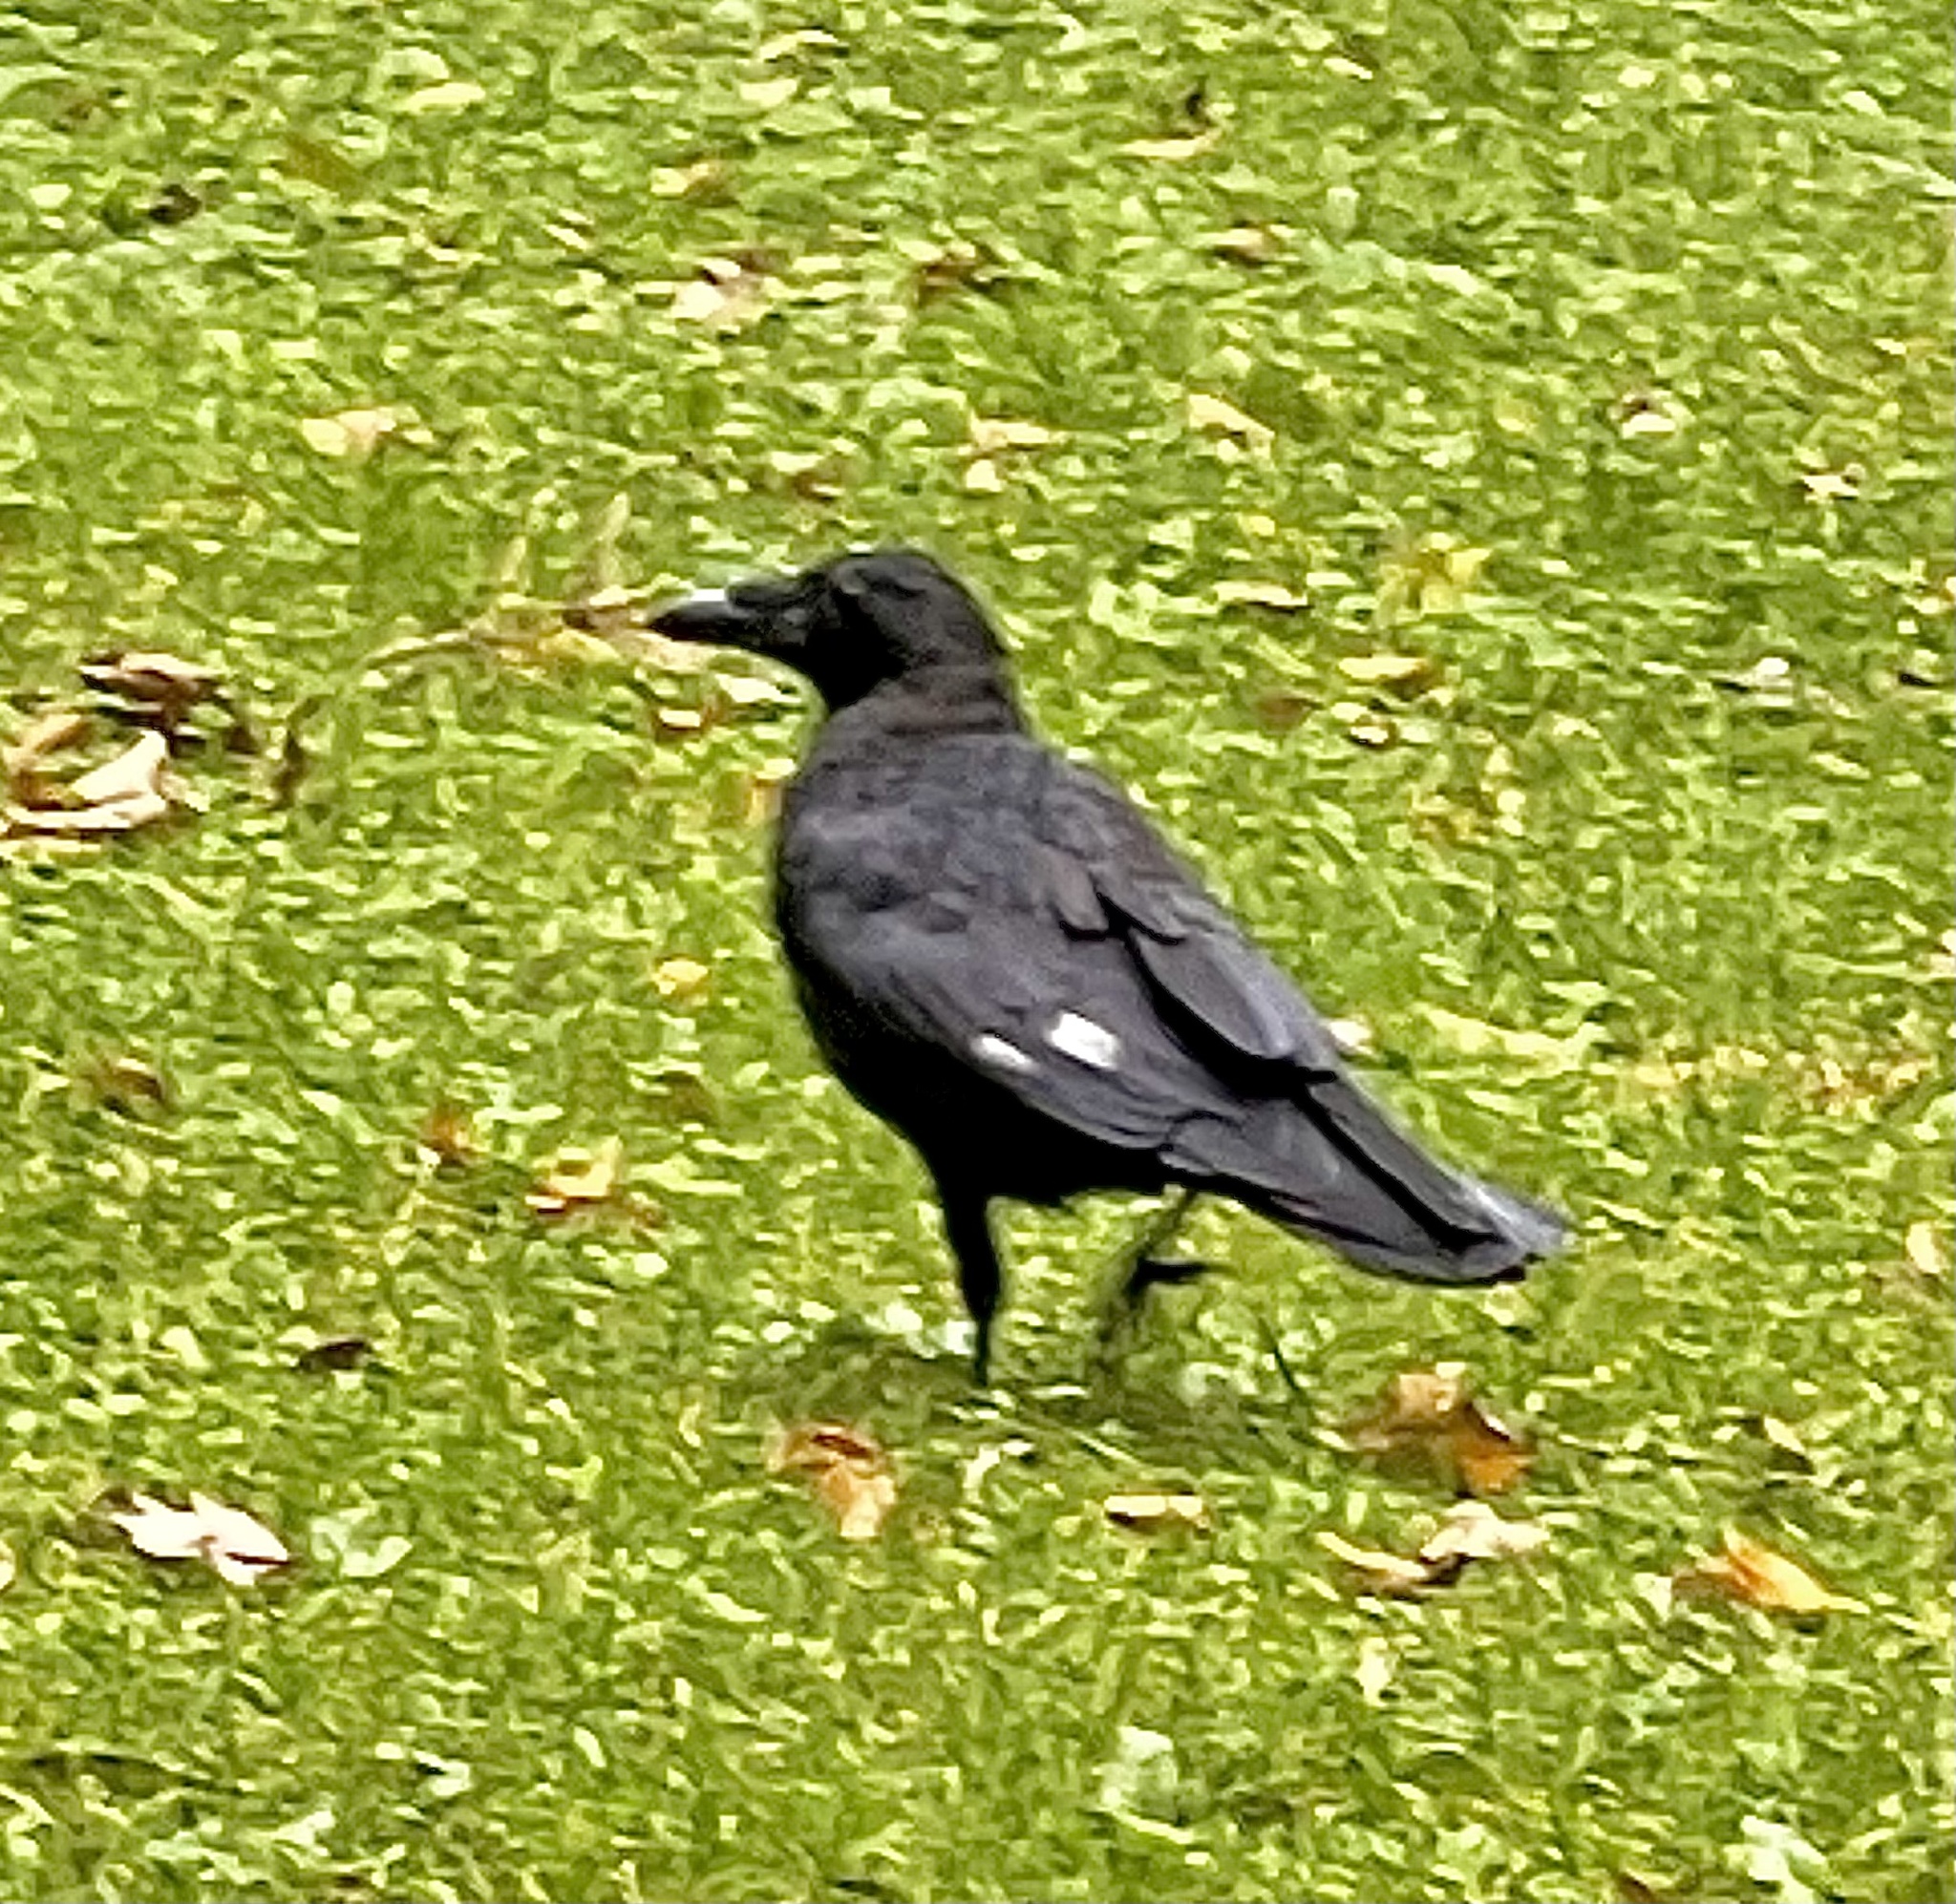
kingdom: Animalia
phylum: Chordata
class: Aves
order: Passeriformes
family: Corvidae
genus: Corvus
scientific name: Corvus corone
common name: Carrion crow
